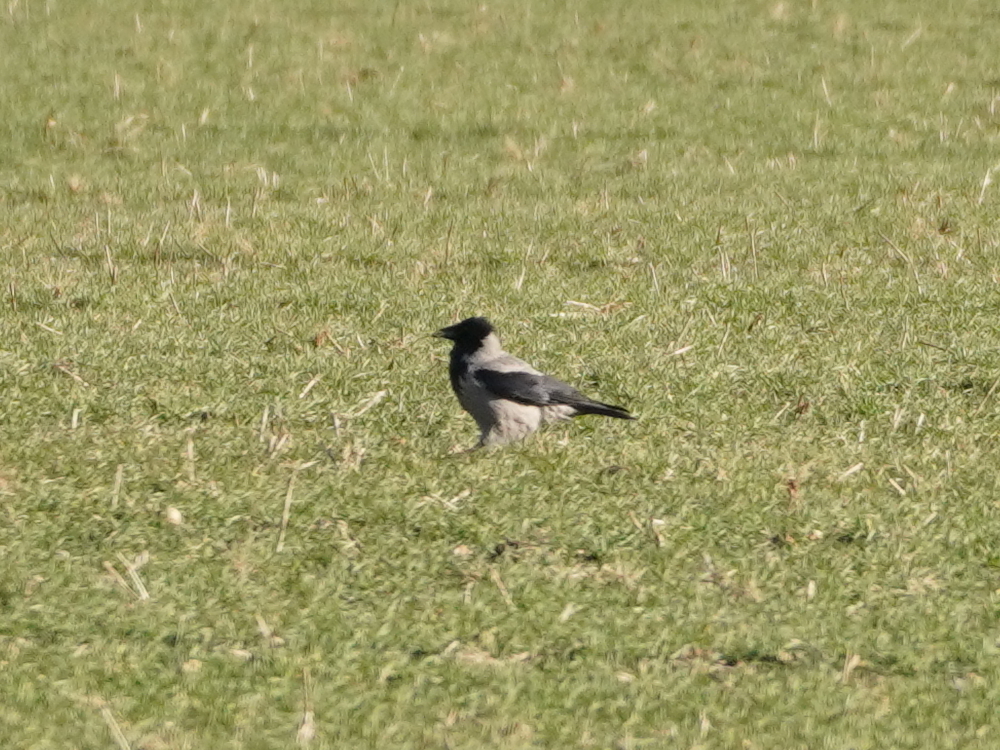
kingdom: Animalia
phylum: Chordata
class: Aves
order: Passeriformes
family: Corvidae
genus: Corvus
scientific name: Corvus cornix
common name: Hooded crow
